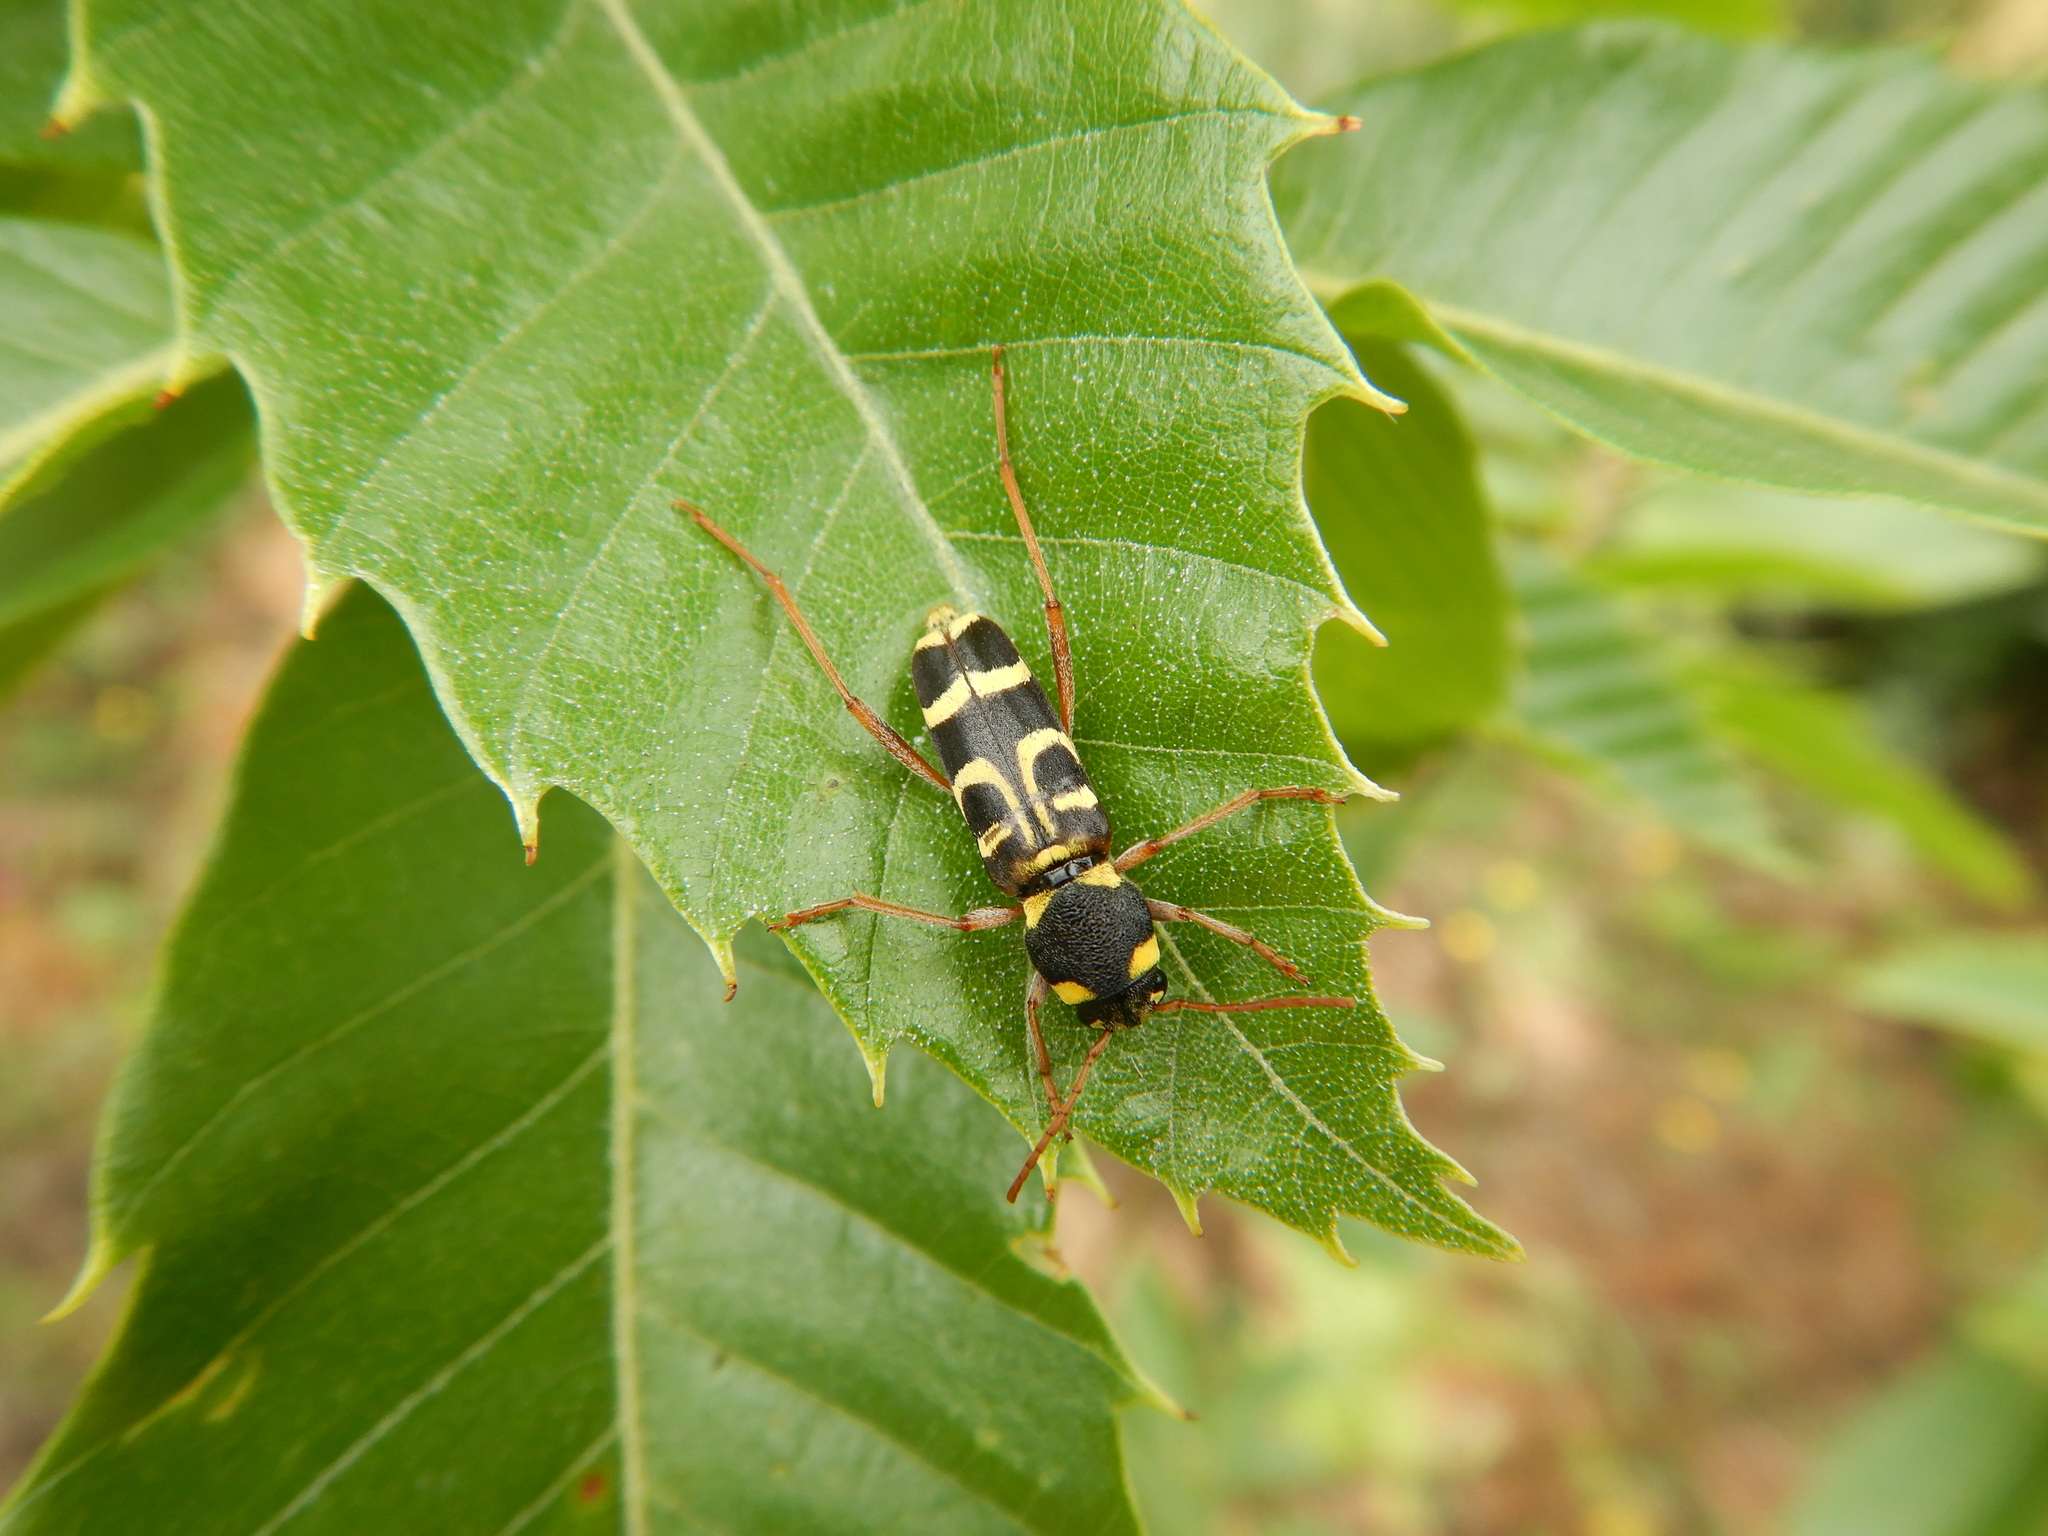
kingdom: Animalia
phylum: Arthropoda
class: Insecta
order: Coleoptera
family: Cerambycidae
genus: Xylotrechus
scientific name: Xylotrechus arvicola
